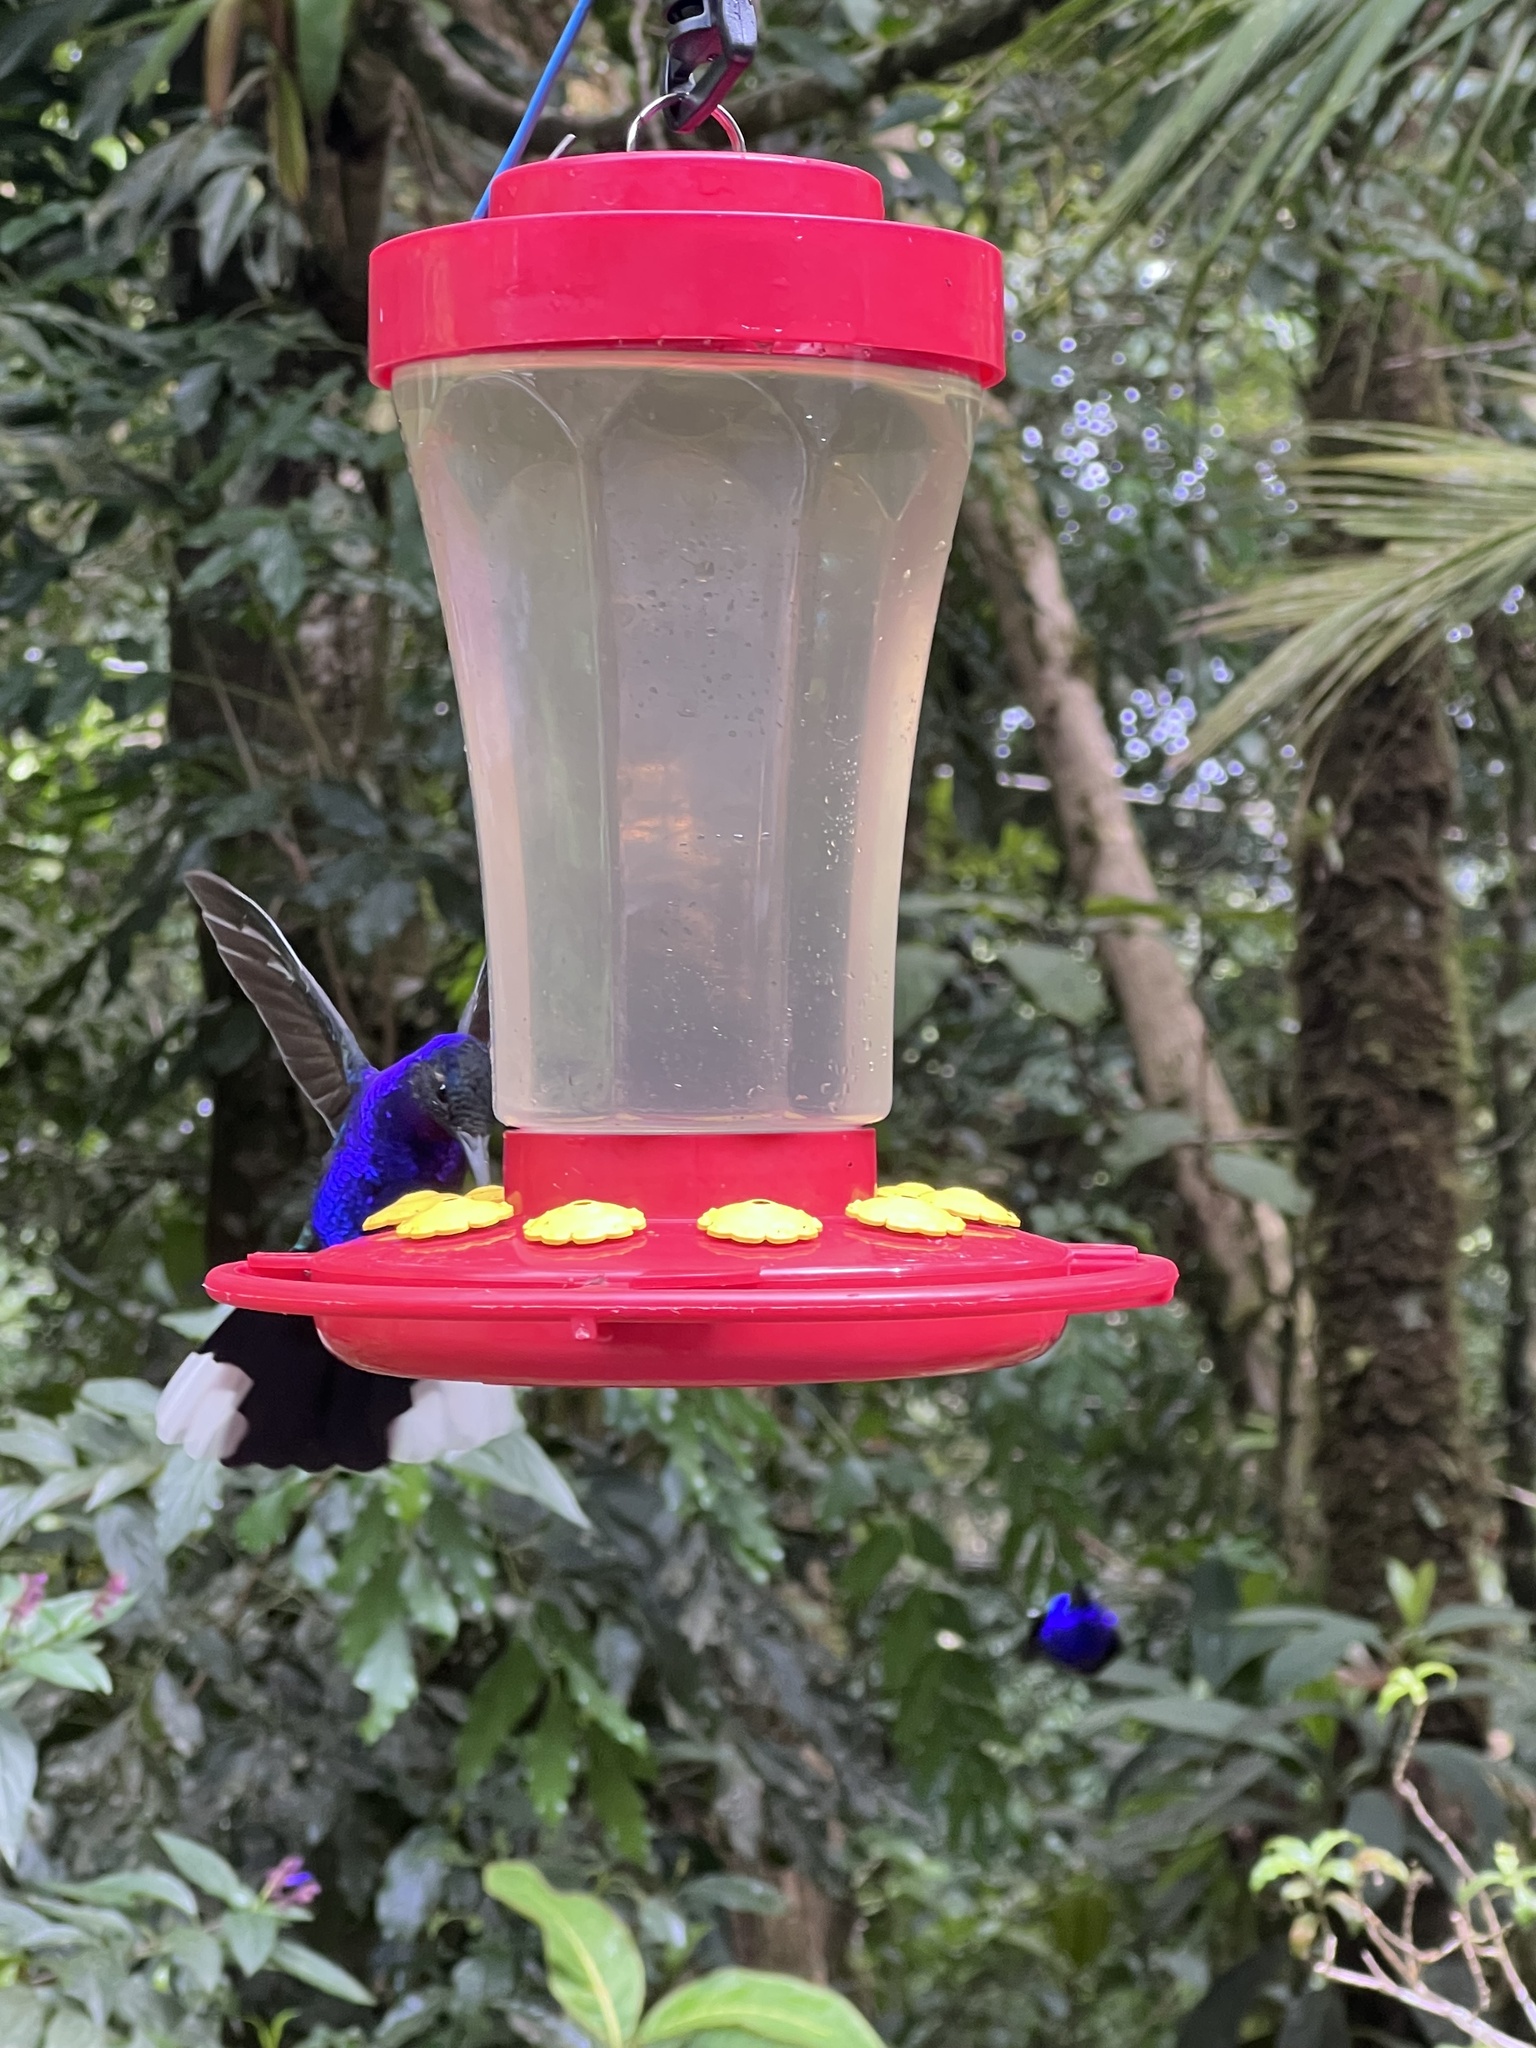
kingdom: Animalia
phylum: Chordata
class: Aves
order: Apodiformes
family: Trochilidae
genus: Campylopterus
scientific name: Campylopterus hemileucurus
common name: Violet sabrewing
